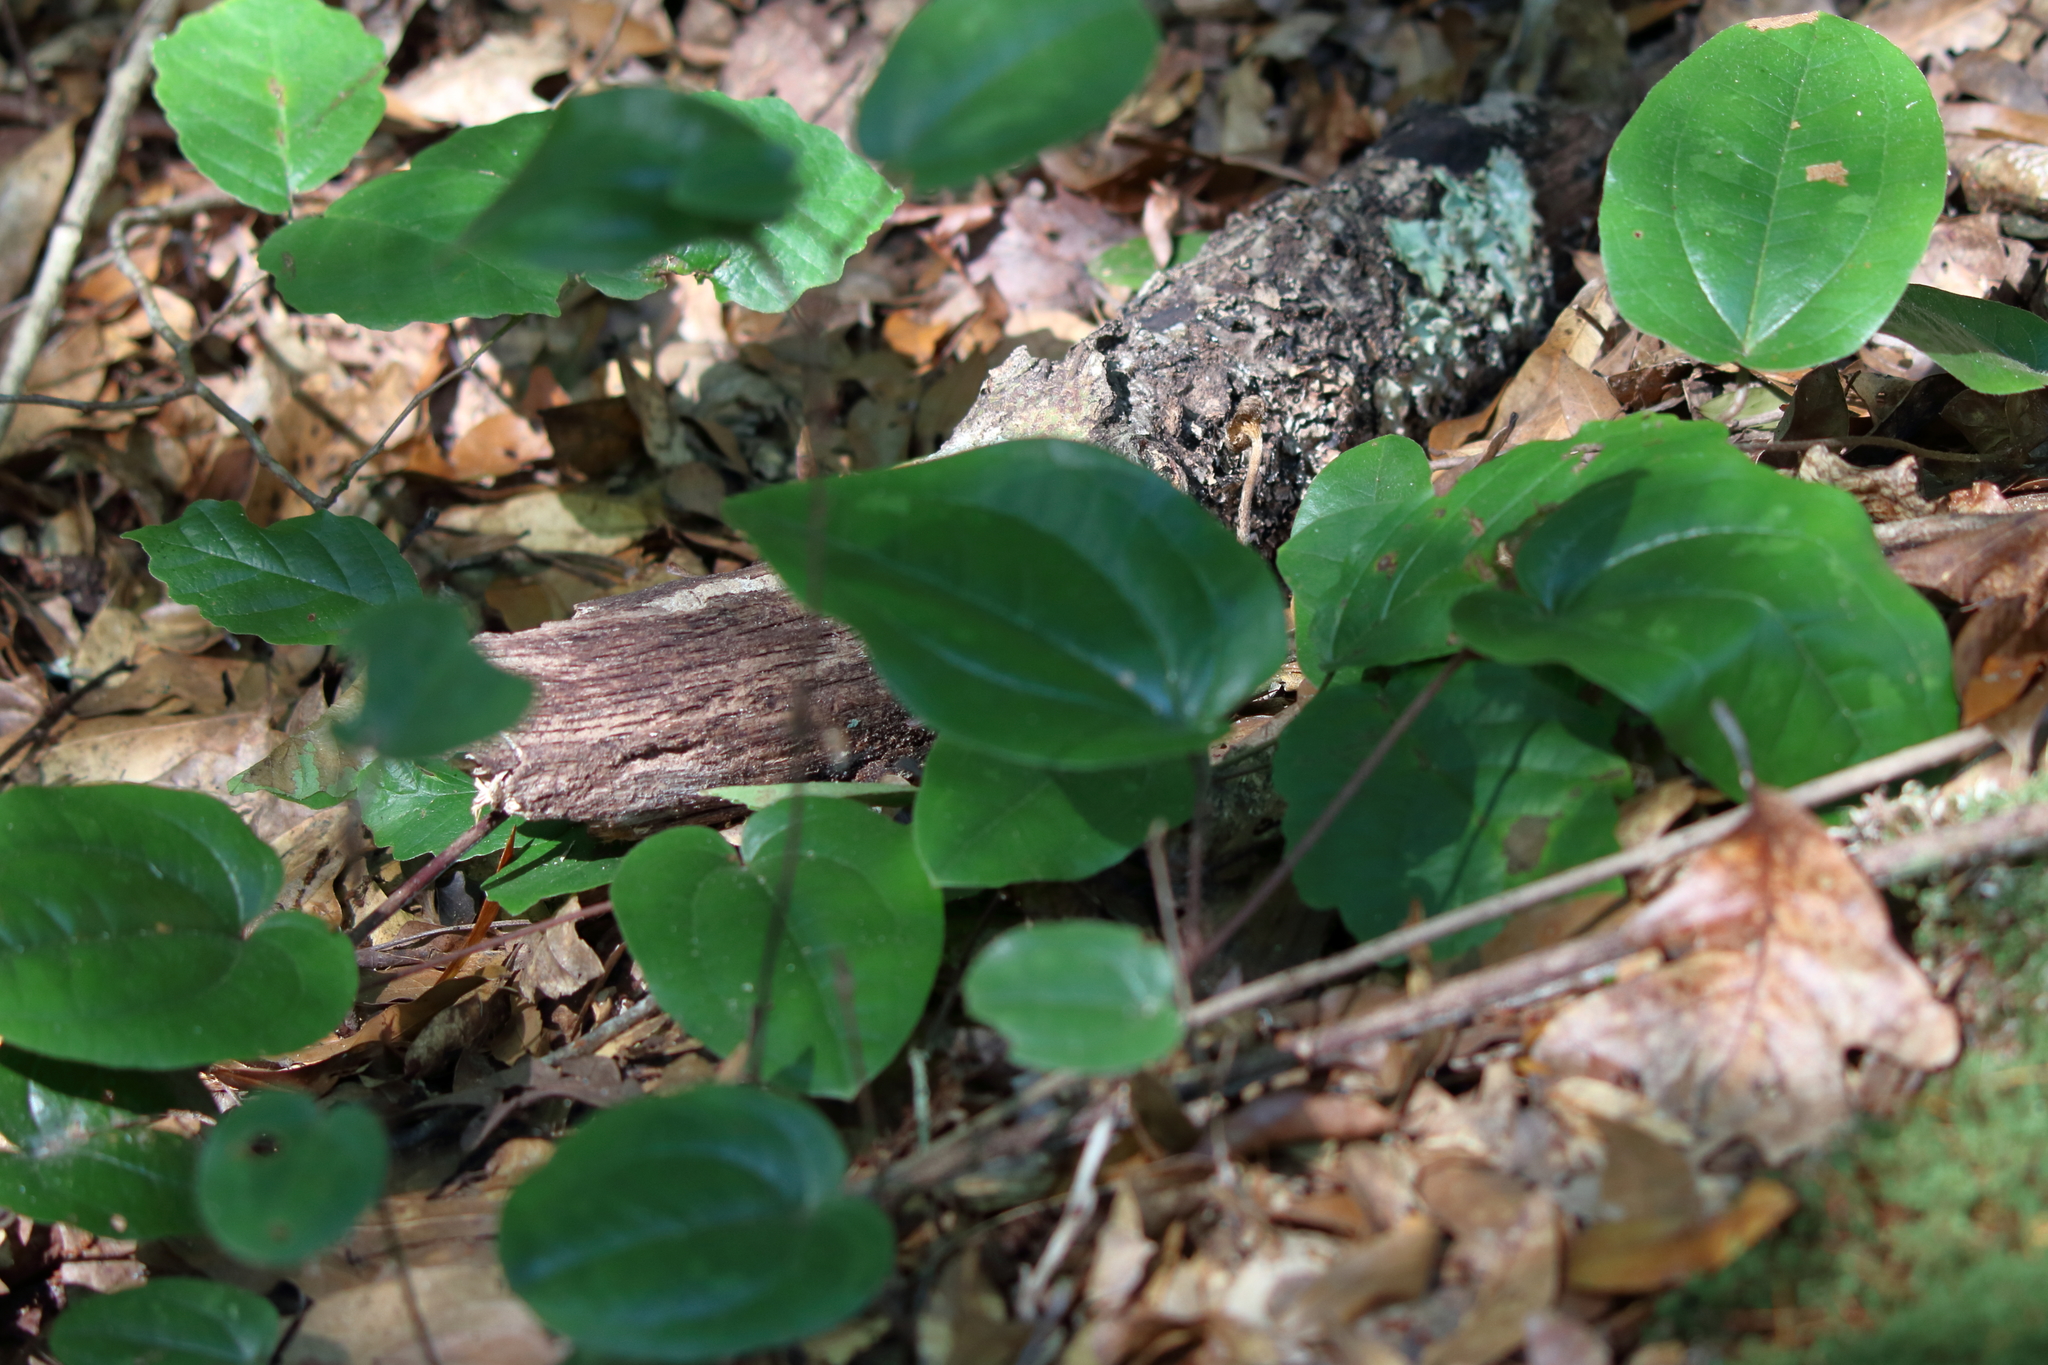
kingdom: Plantae
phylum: Tracheophyta
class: Liliopsida
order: Liliales
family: Smilacaceae
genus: Smilax
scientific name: Smilax pumila
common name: Sarsaparilla-vine
